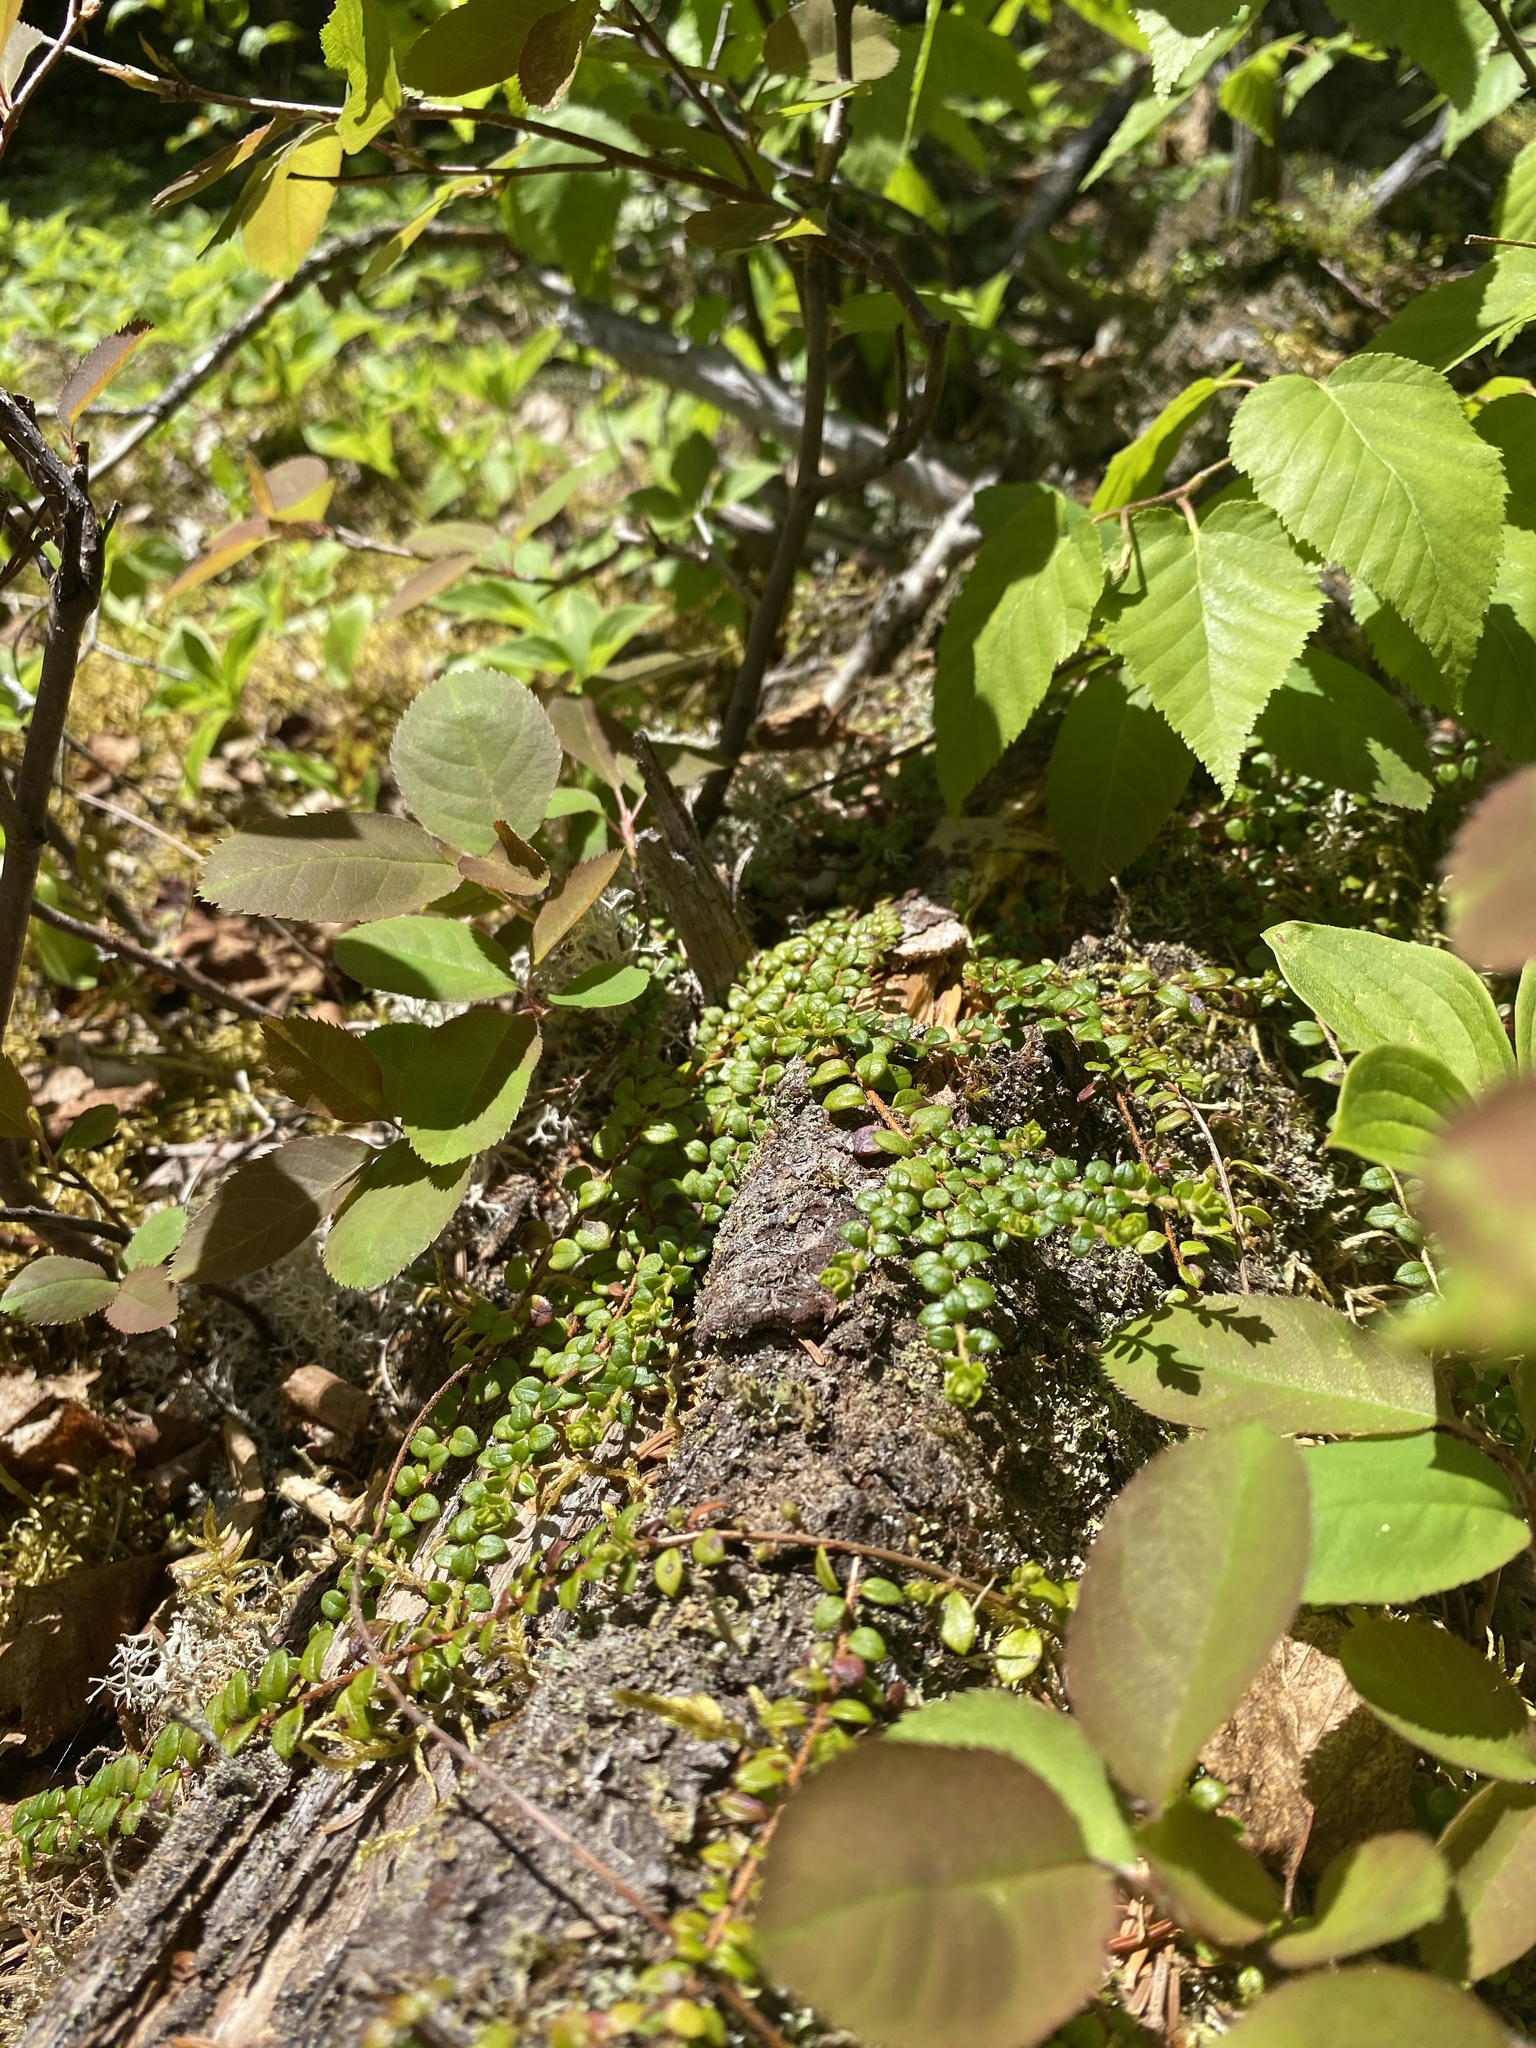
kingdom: Plantae
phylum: Tracheophyta
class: Magnoliopsida
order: Ericales
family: Ericaceae
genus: Gaultheria
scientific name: Gaultheria hispidula
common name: Cancer wintergreen
